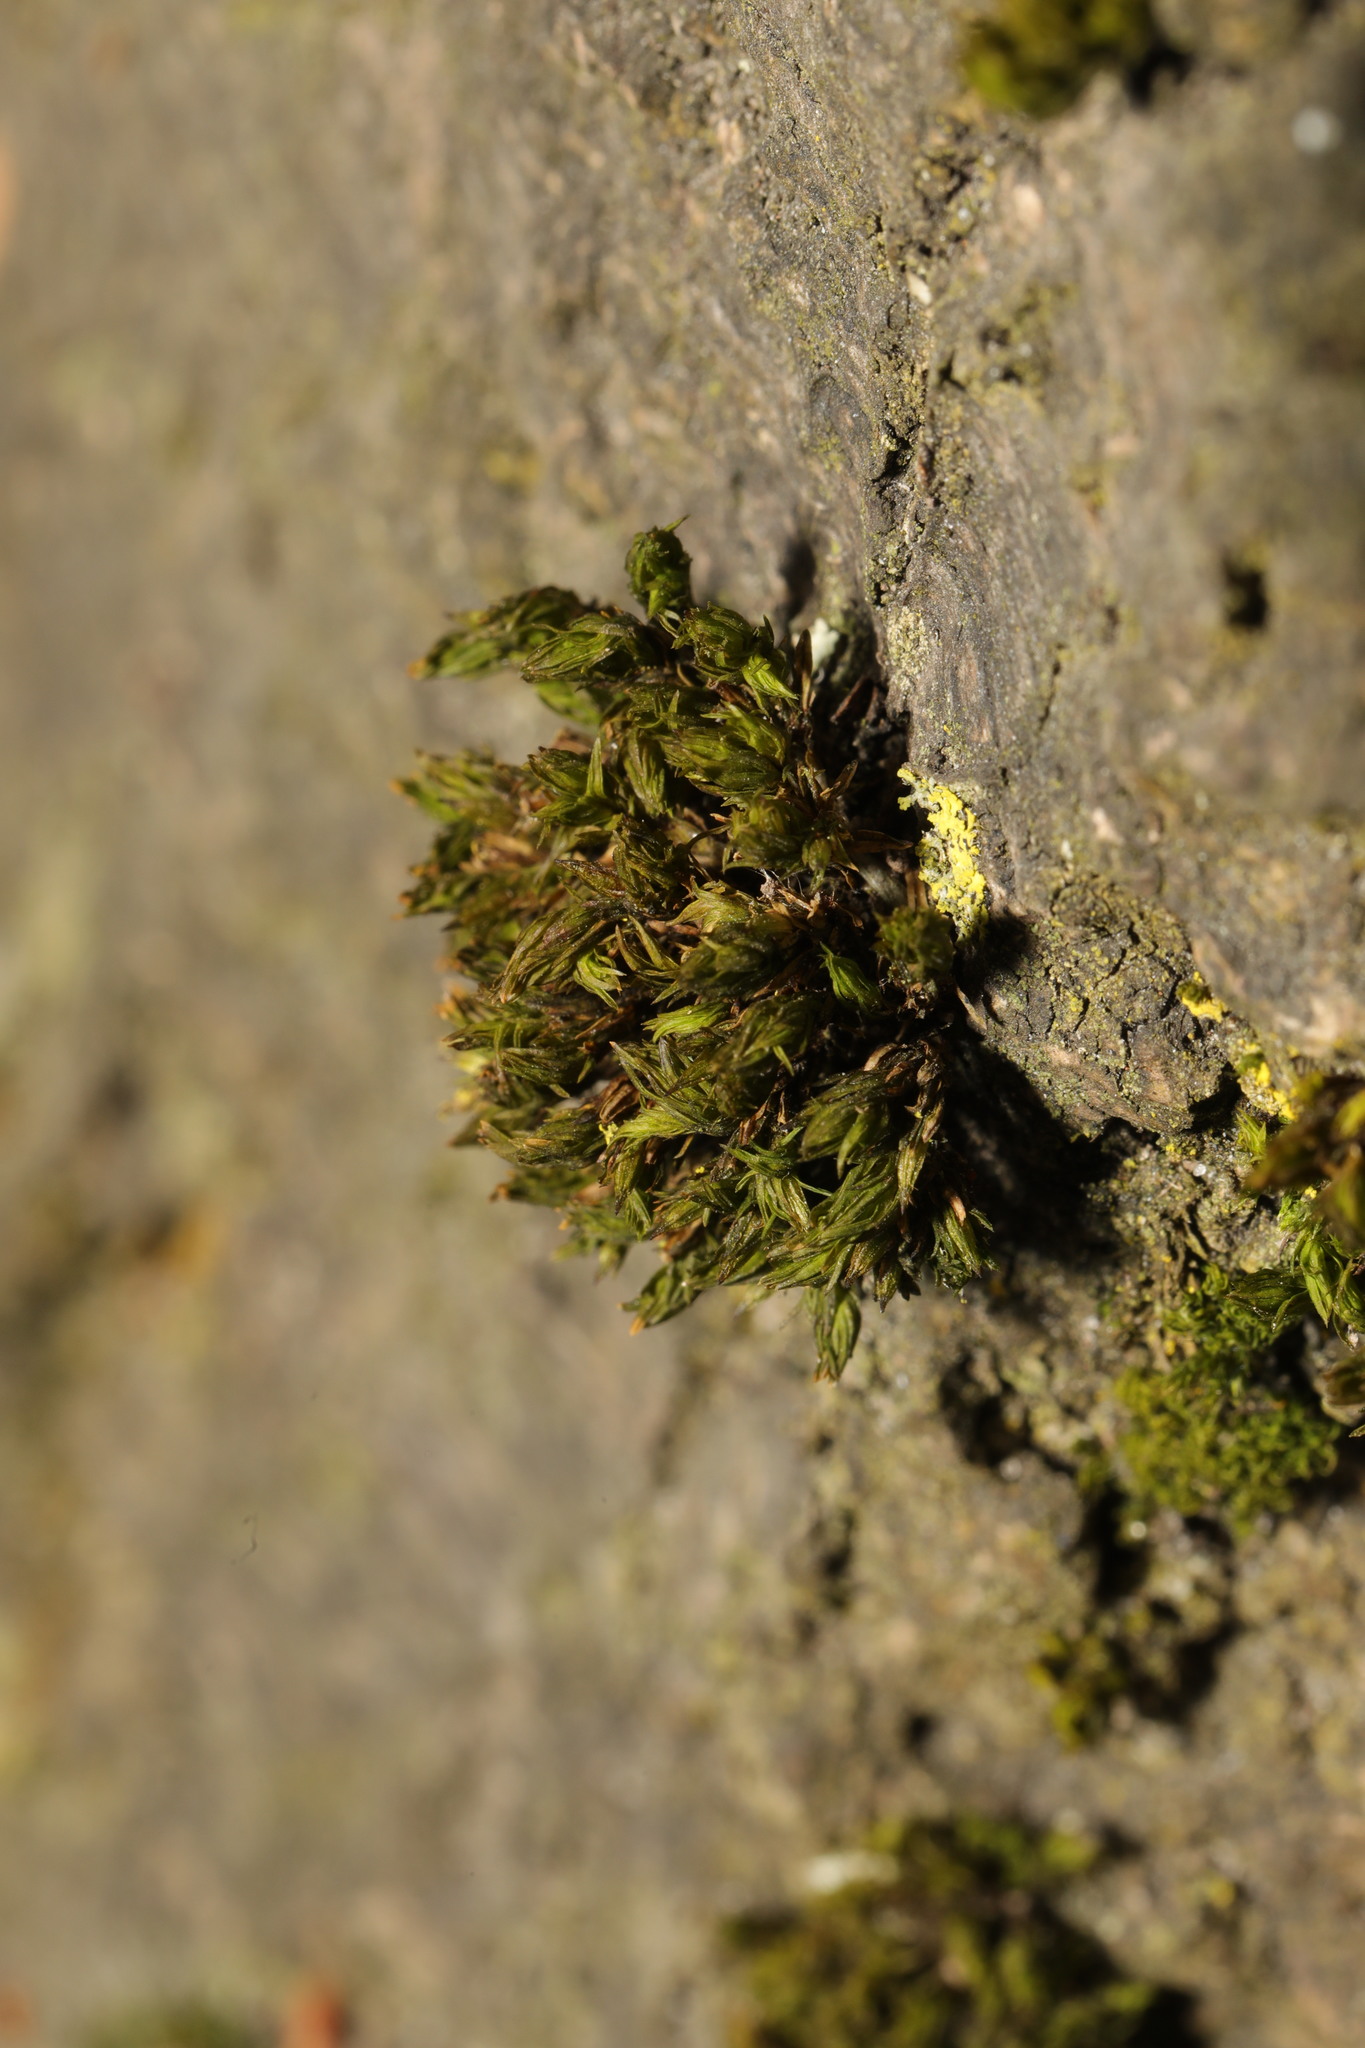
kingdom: Plantae
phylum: Bryophyta
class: Bryopsida
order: Orthotrichales
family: Orthotrichaceae
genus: Lewinskya
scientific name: Lewinskya affinis
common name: Wood bristle-moss
